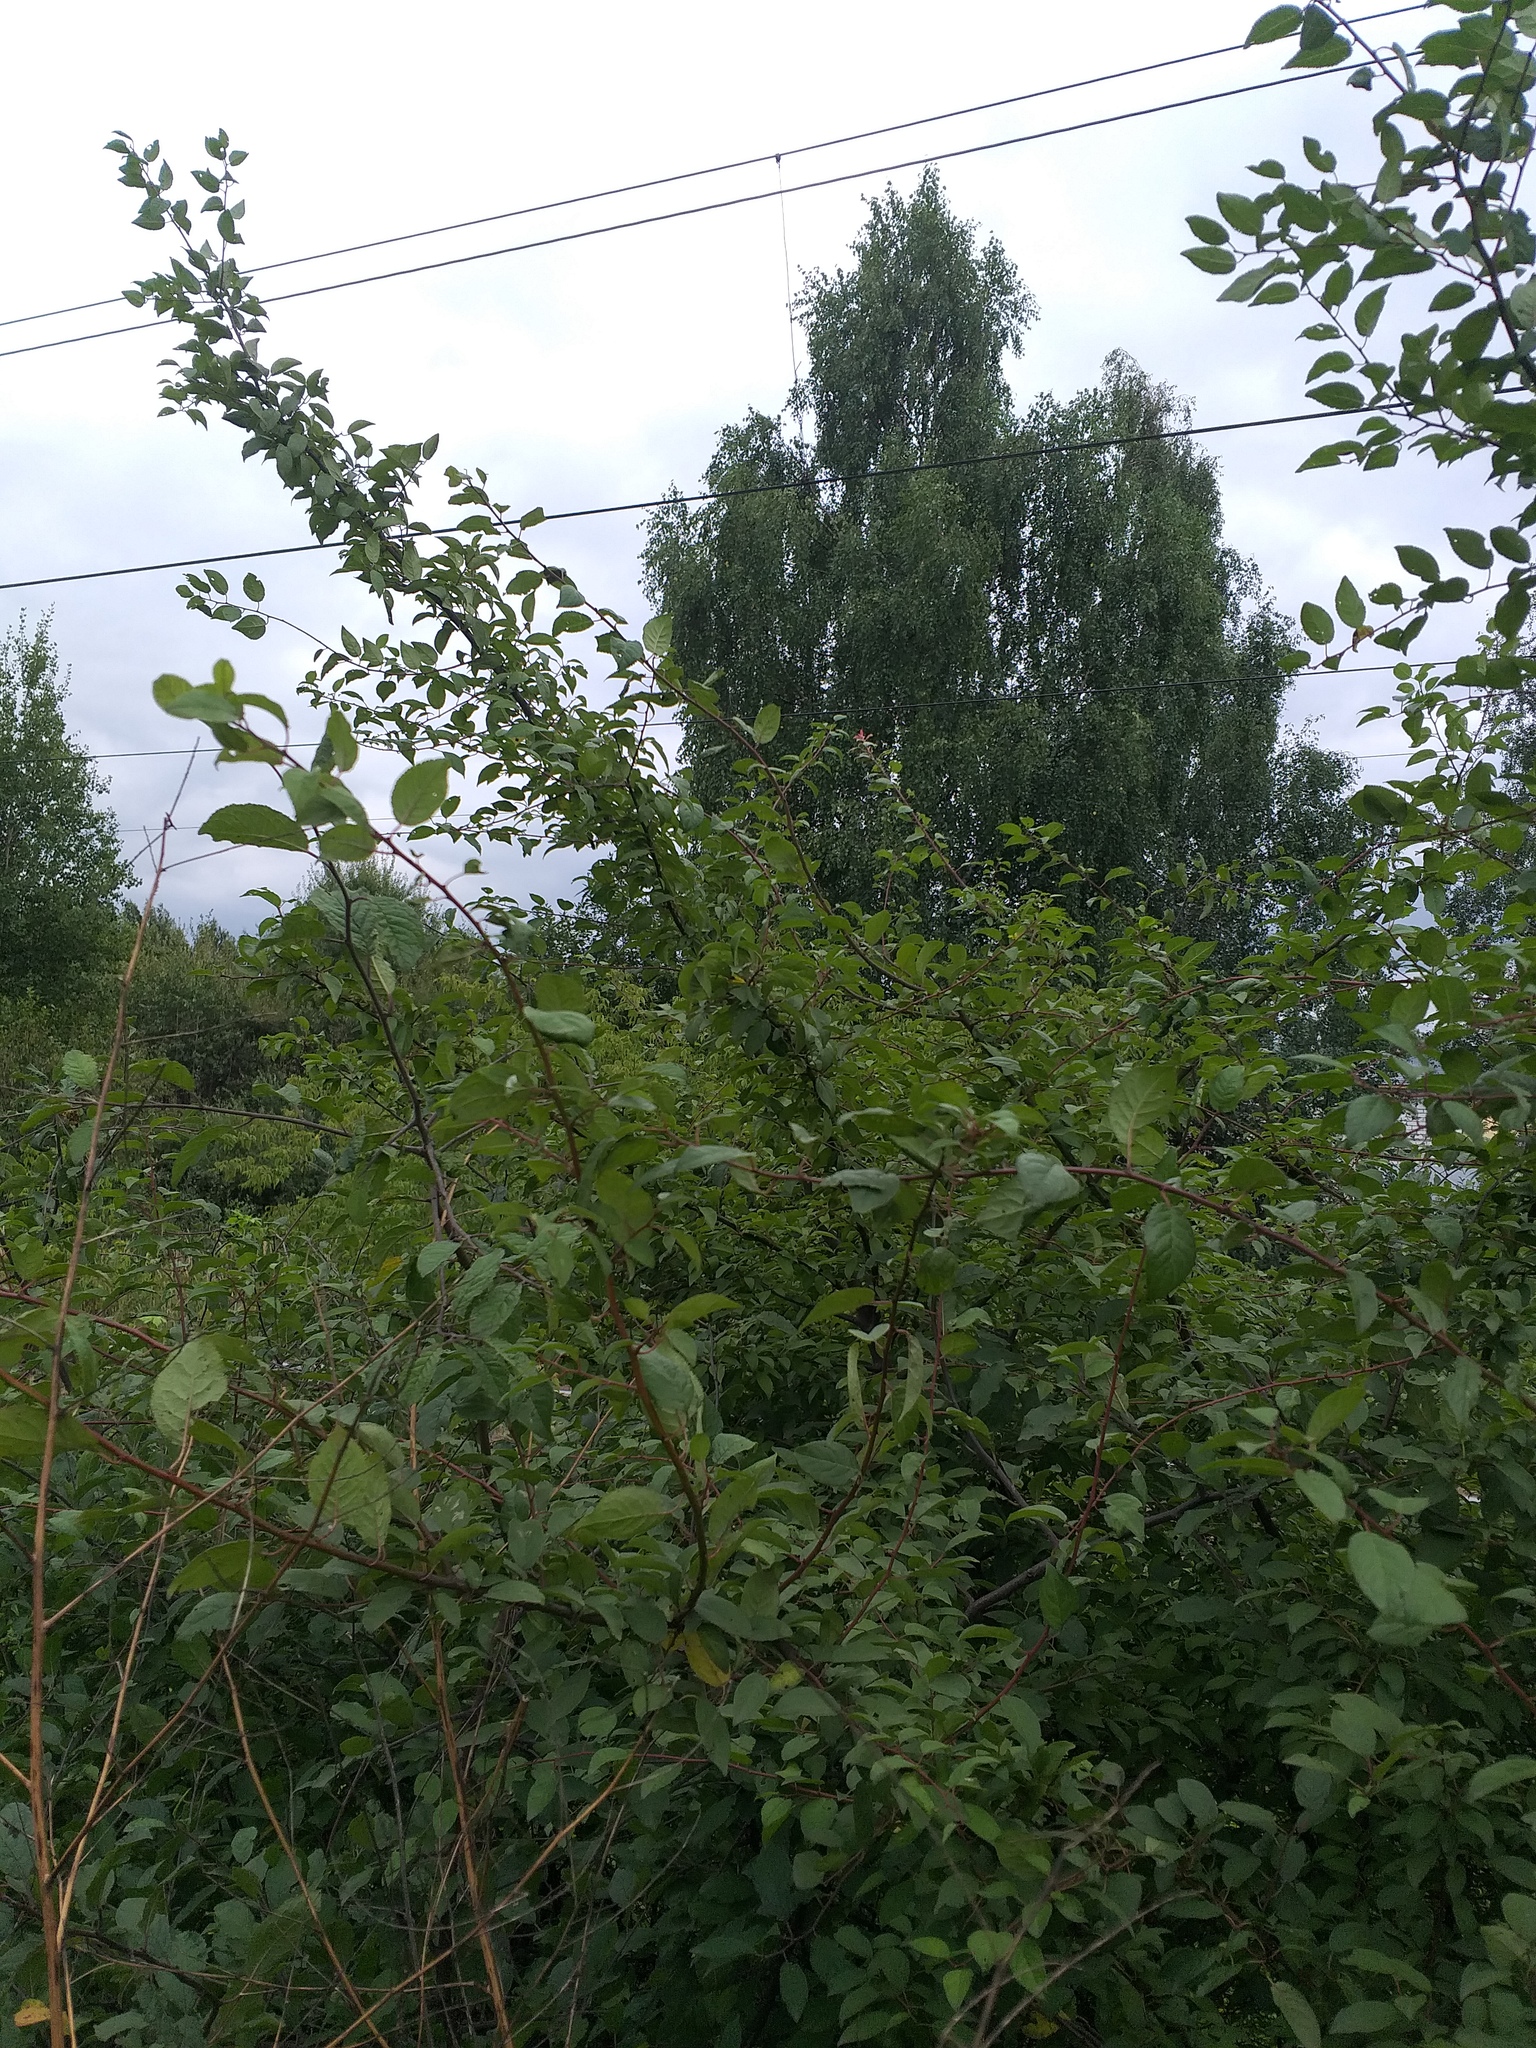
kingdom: Plantae
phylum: Tracheophyta
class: Magnoliopsida
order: Rosales
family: Rosaceae
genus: Prunus
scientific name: Prunus cerasifera
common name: Cherry plum
